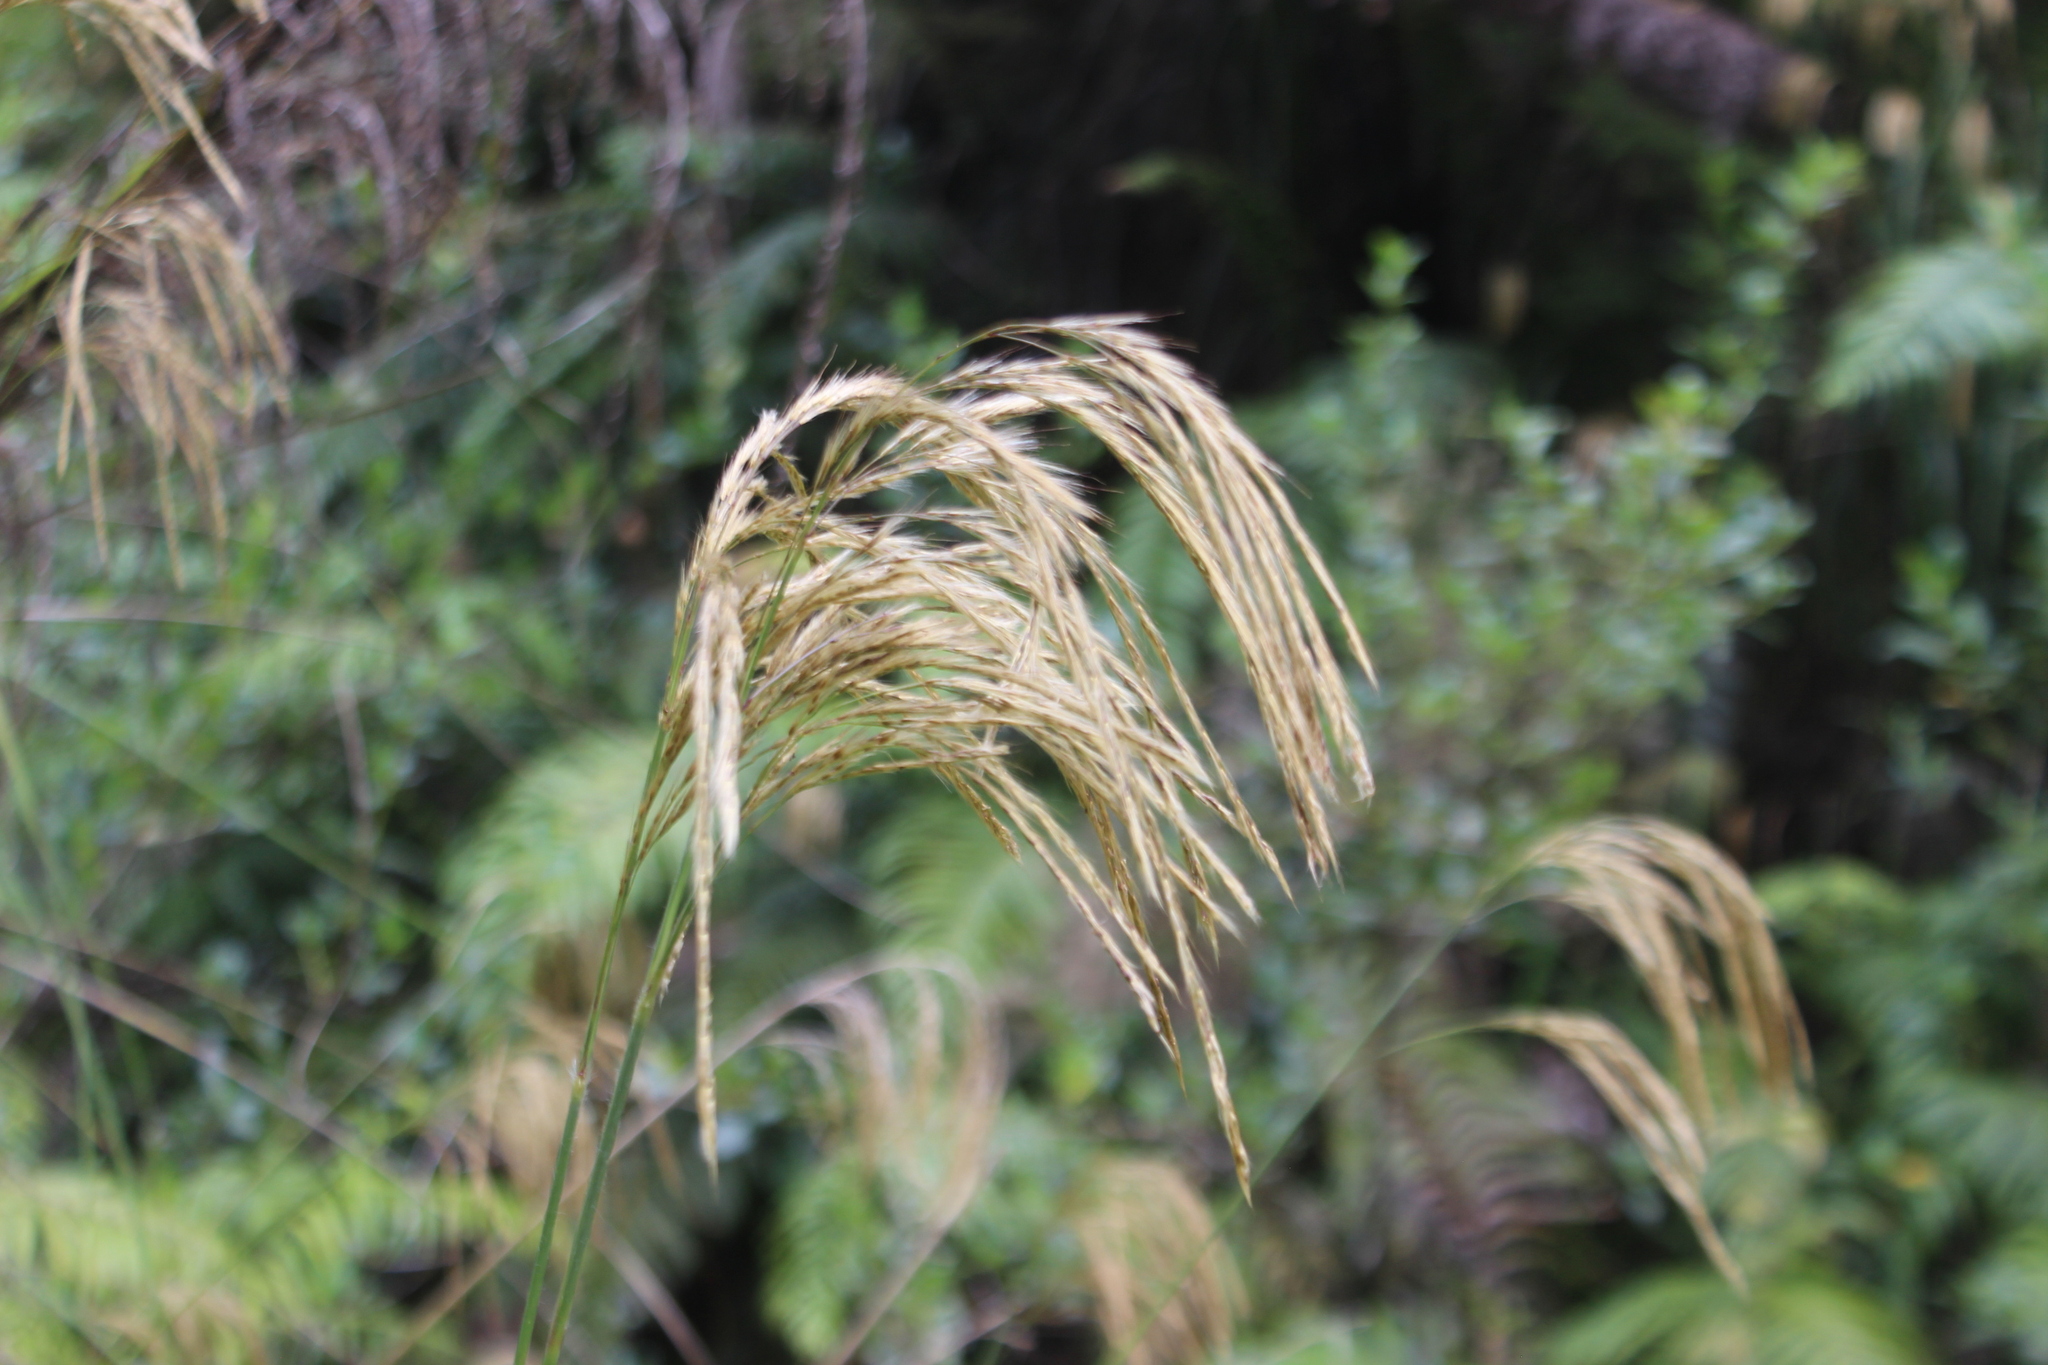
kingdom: Plantae
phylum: Tracheophyta
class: Liliopsida
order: Poales
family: Poaceae
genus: Miscanthus
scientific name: Miscanthus nepalensis
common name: Nepal silver grass
